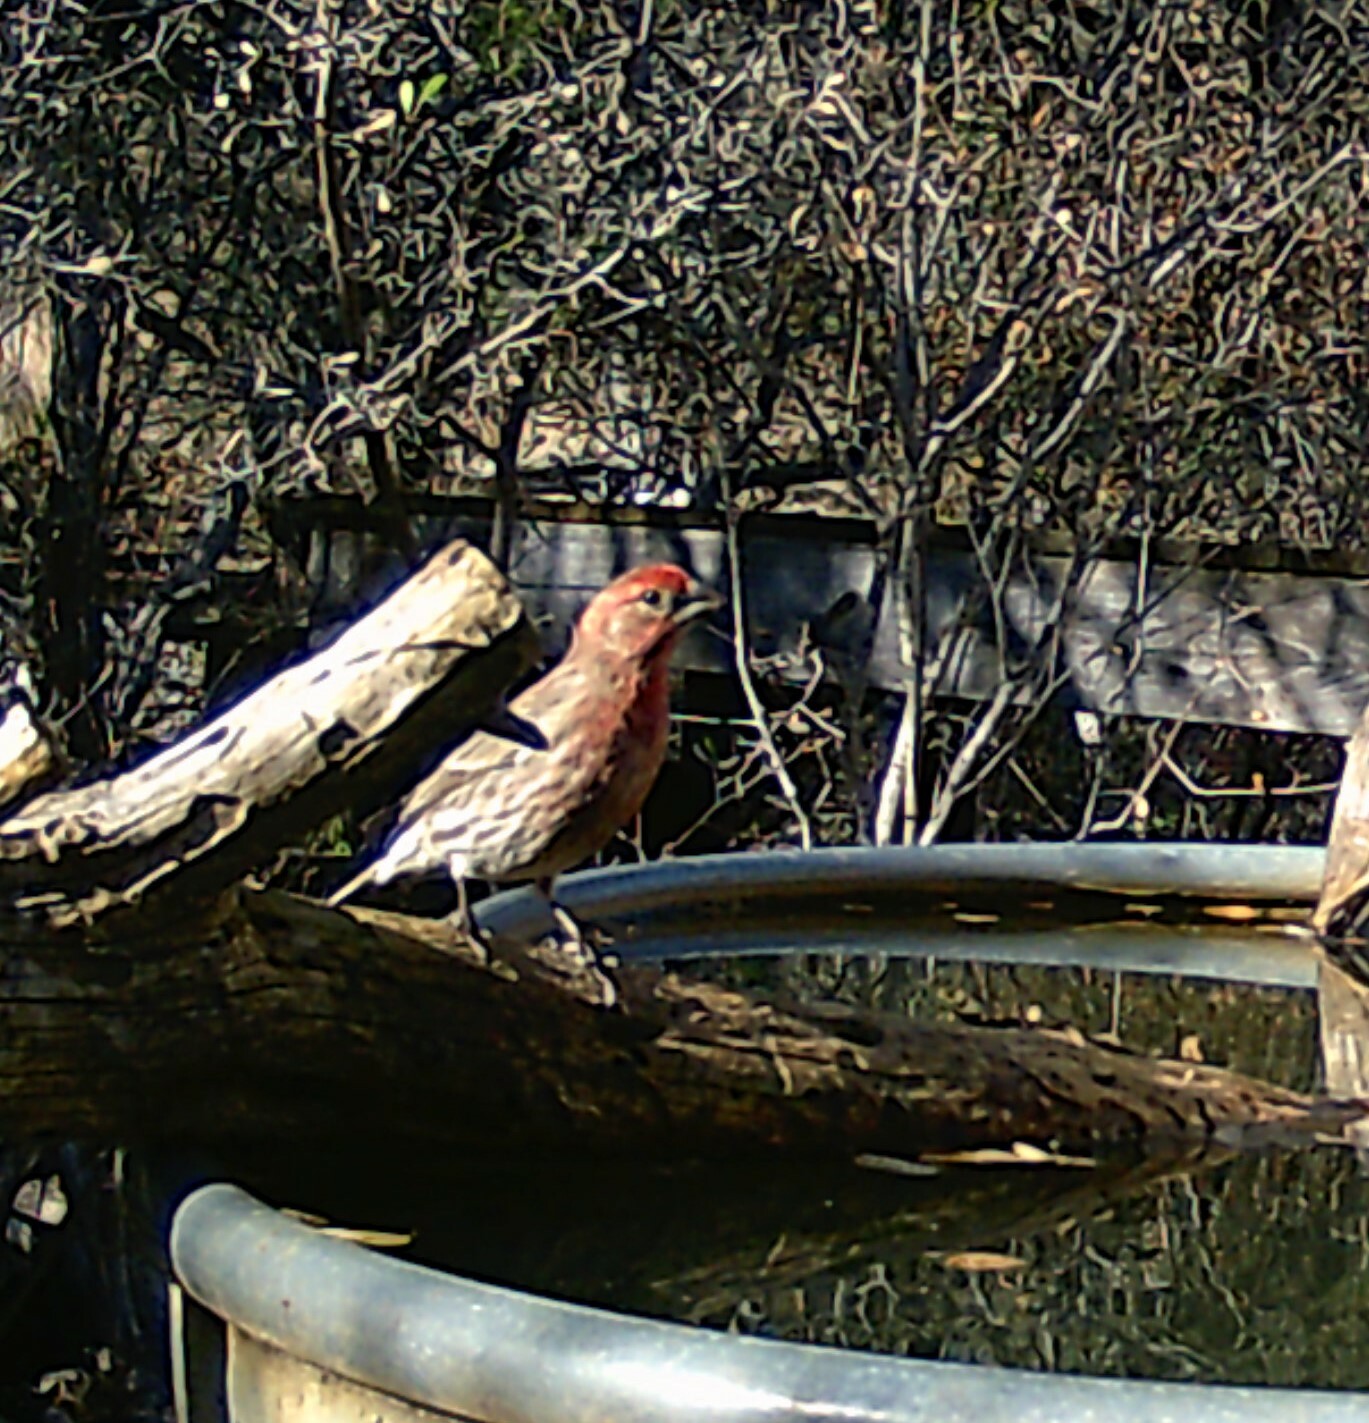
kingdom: Animalia
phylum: Chordata
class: Aves
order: Passeriformes
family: Fringillidae
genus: Haemorhous
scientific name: Haemorhous mexicanus
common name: House finch
